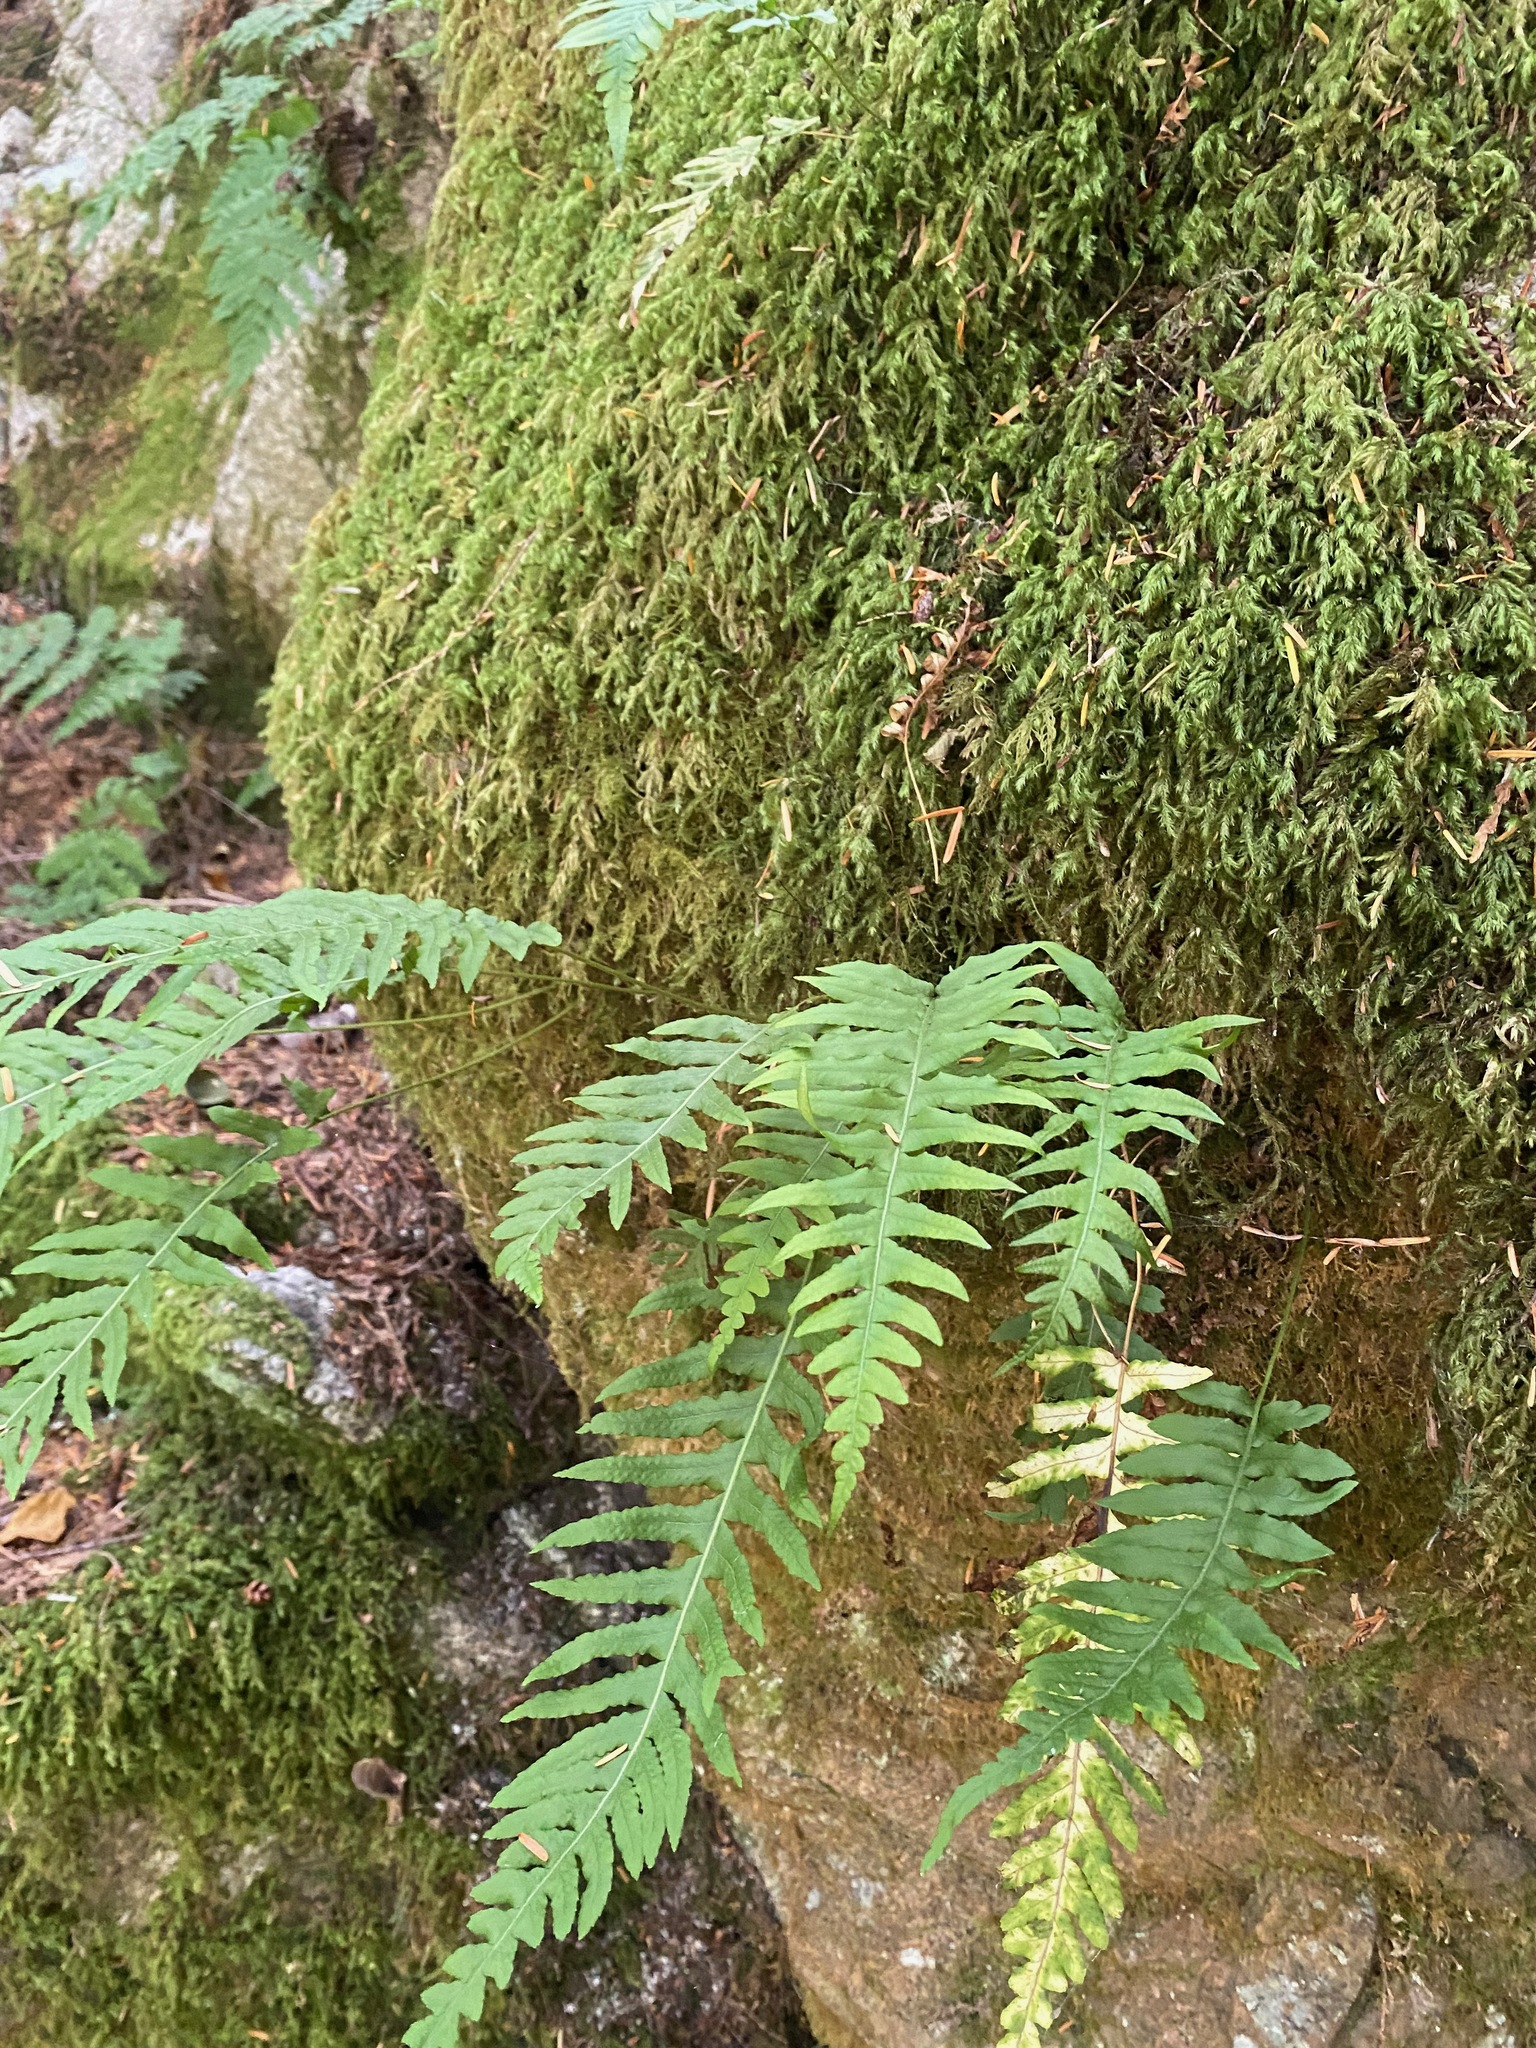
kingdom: Plantae
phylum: Tracheophyta
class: Polypodiopsida
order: Polypodiales
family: Polypodiaceae
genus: Polypodium
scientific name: Polypodium glycyrrhiza
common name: Licorice fern
